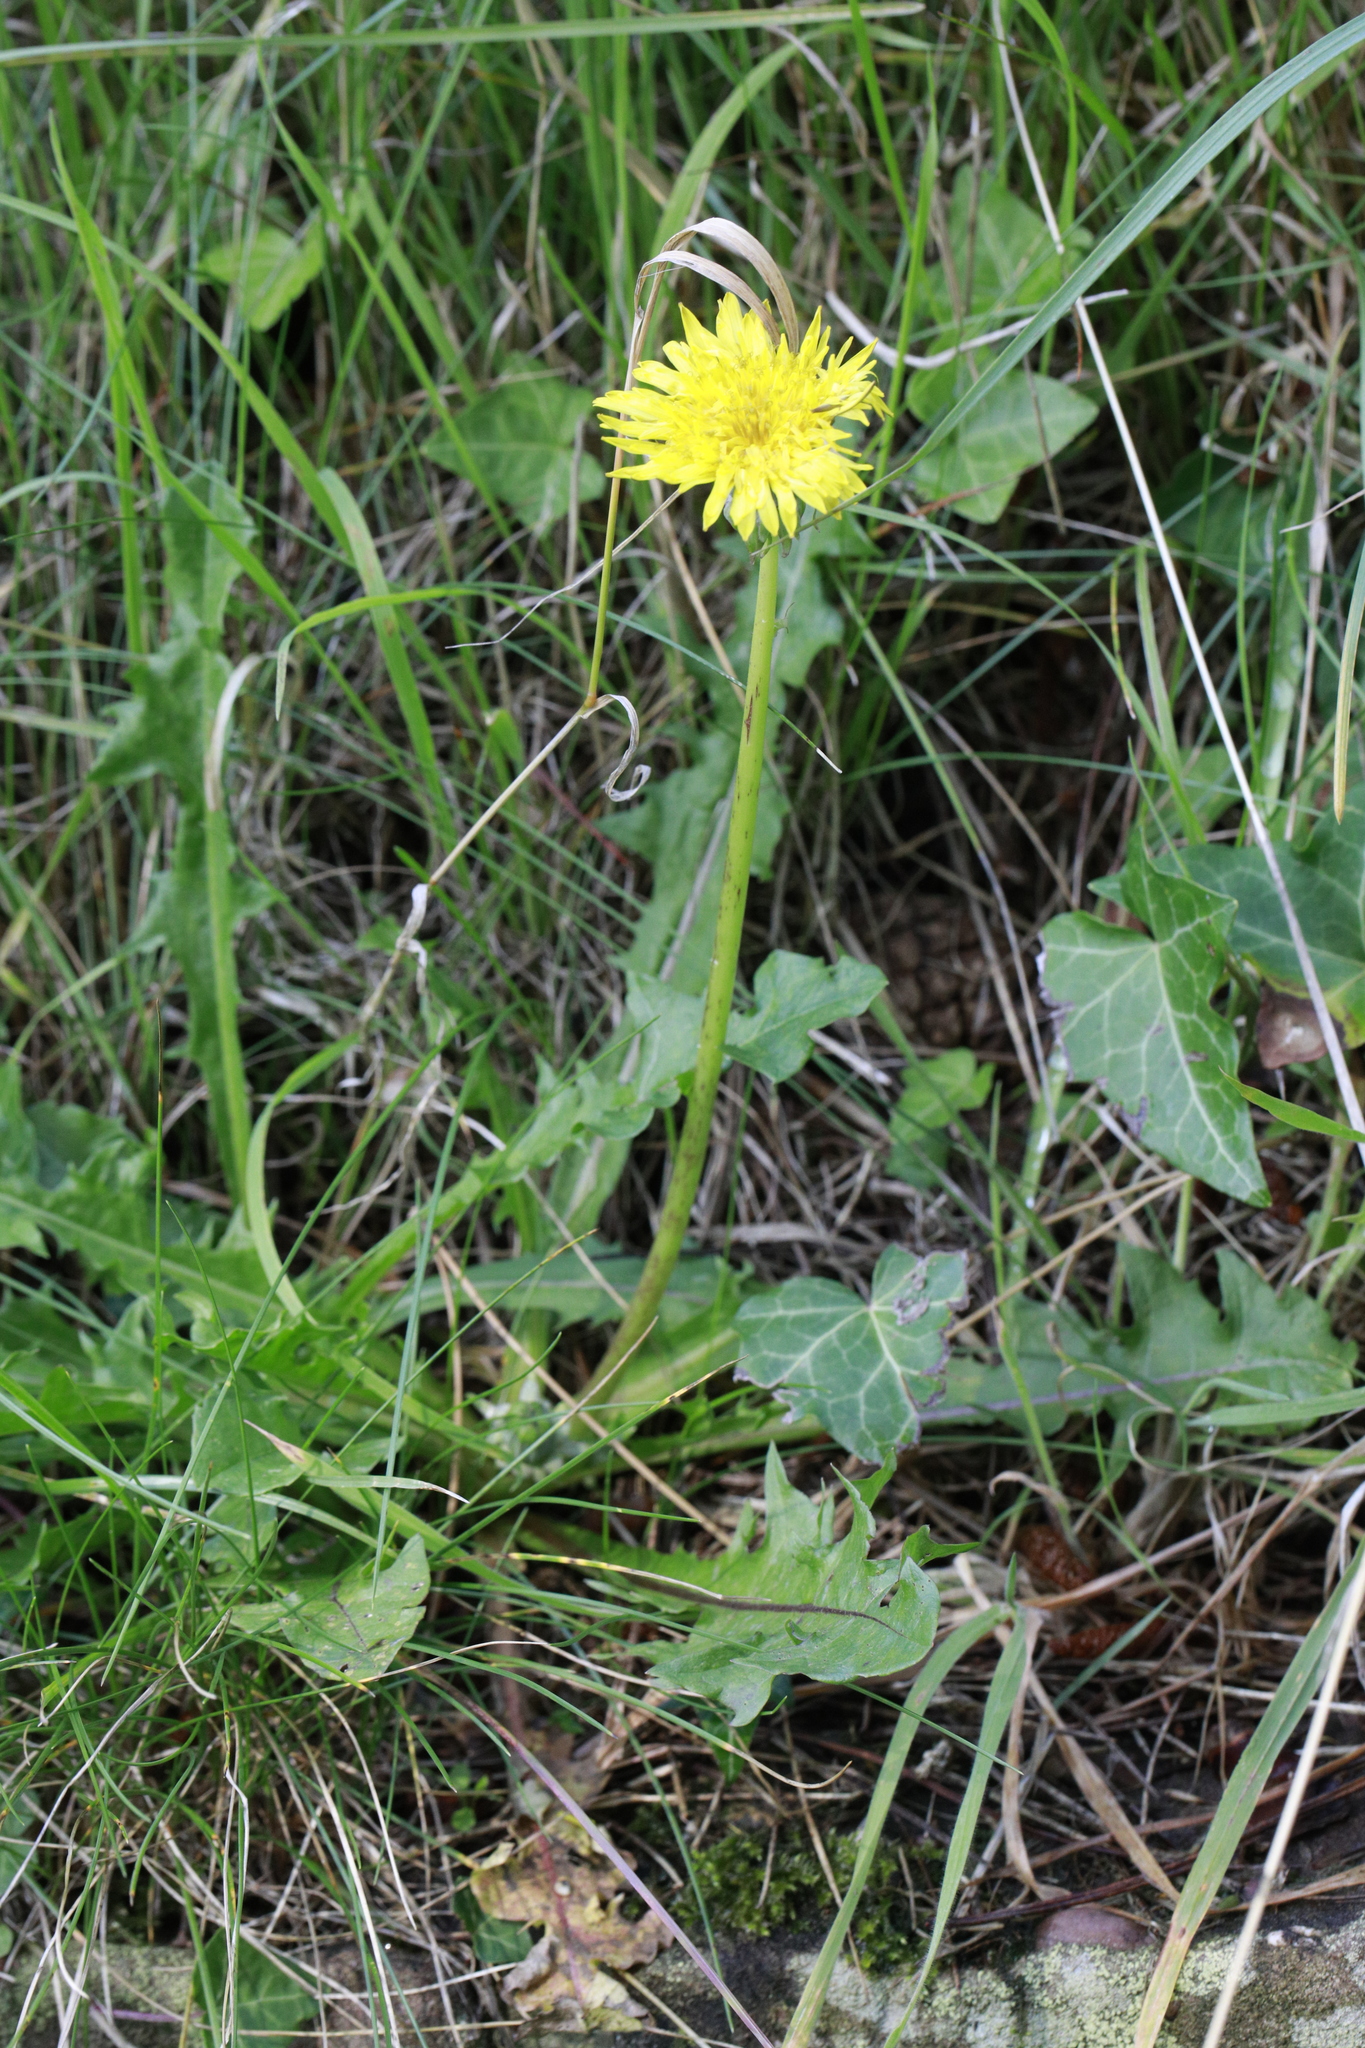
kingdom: Plantae
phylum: Tracheophyta
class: Magnoliopsida
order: Asterales
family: Asteraceae
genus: Taraxacum
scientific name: Taraxacum officinale
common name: Common dandelion
